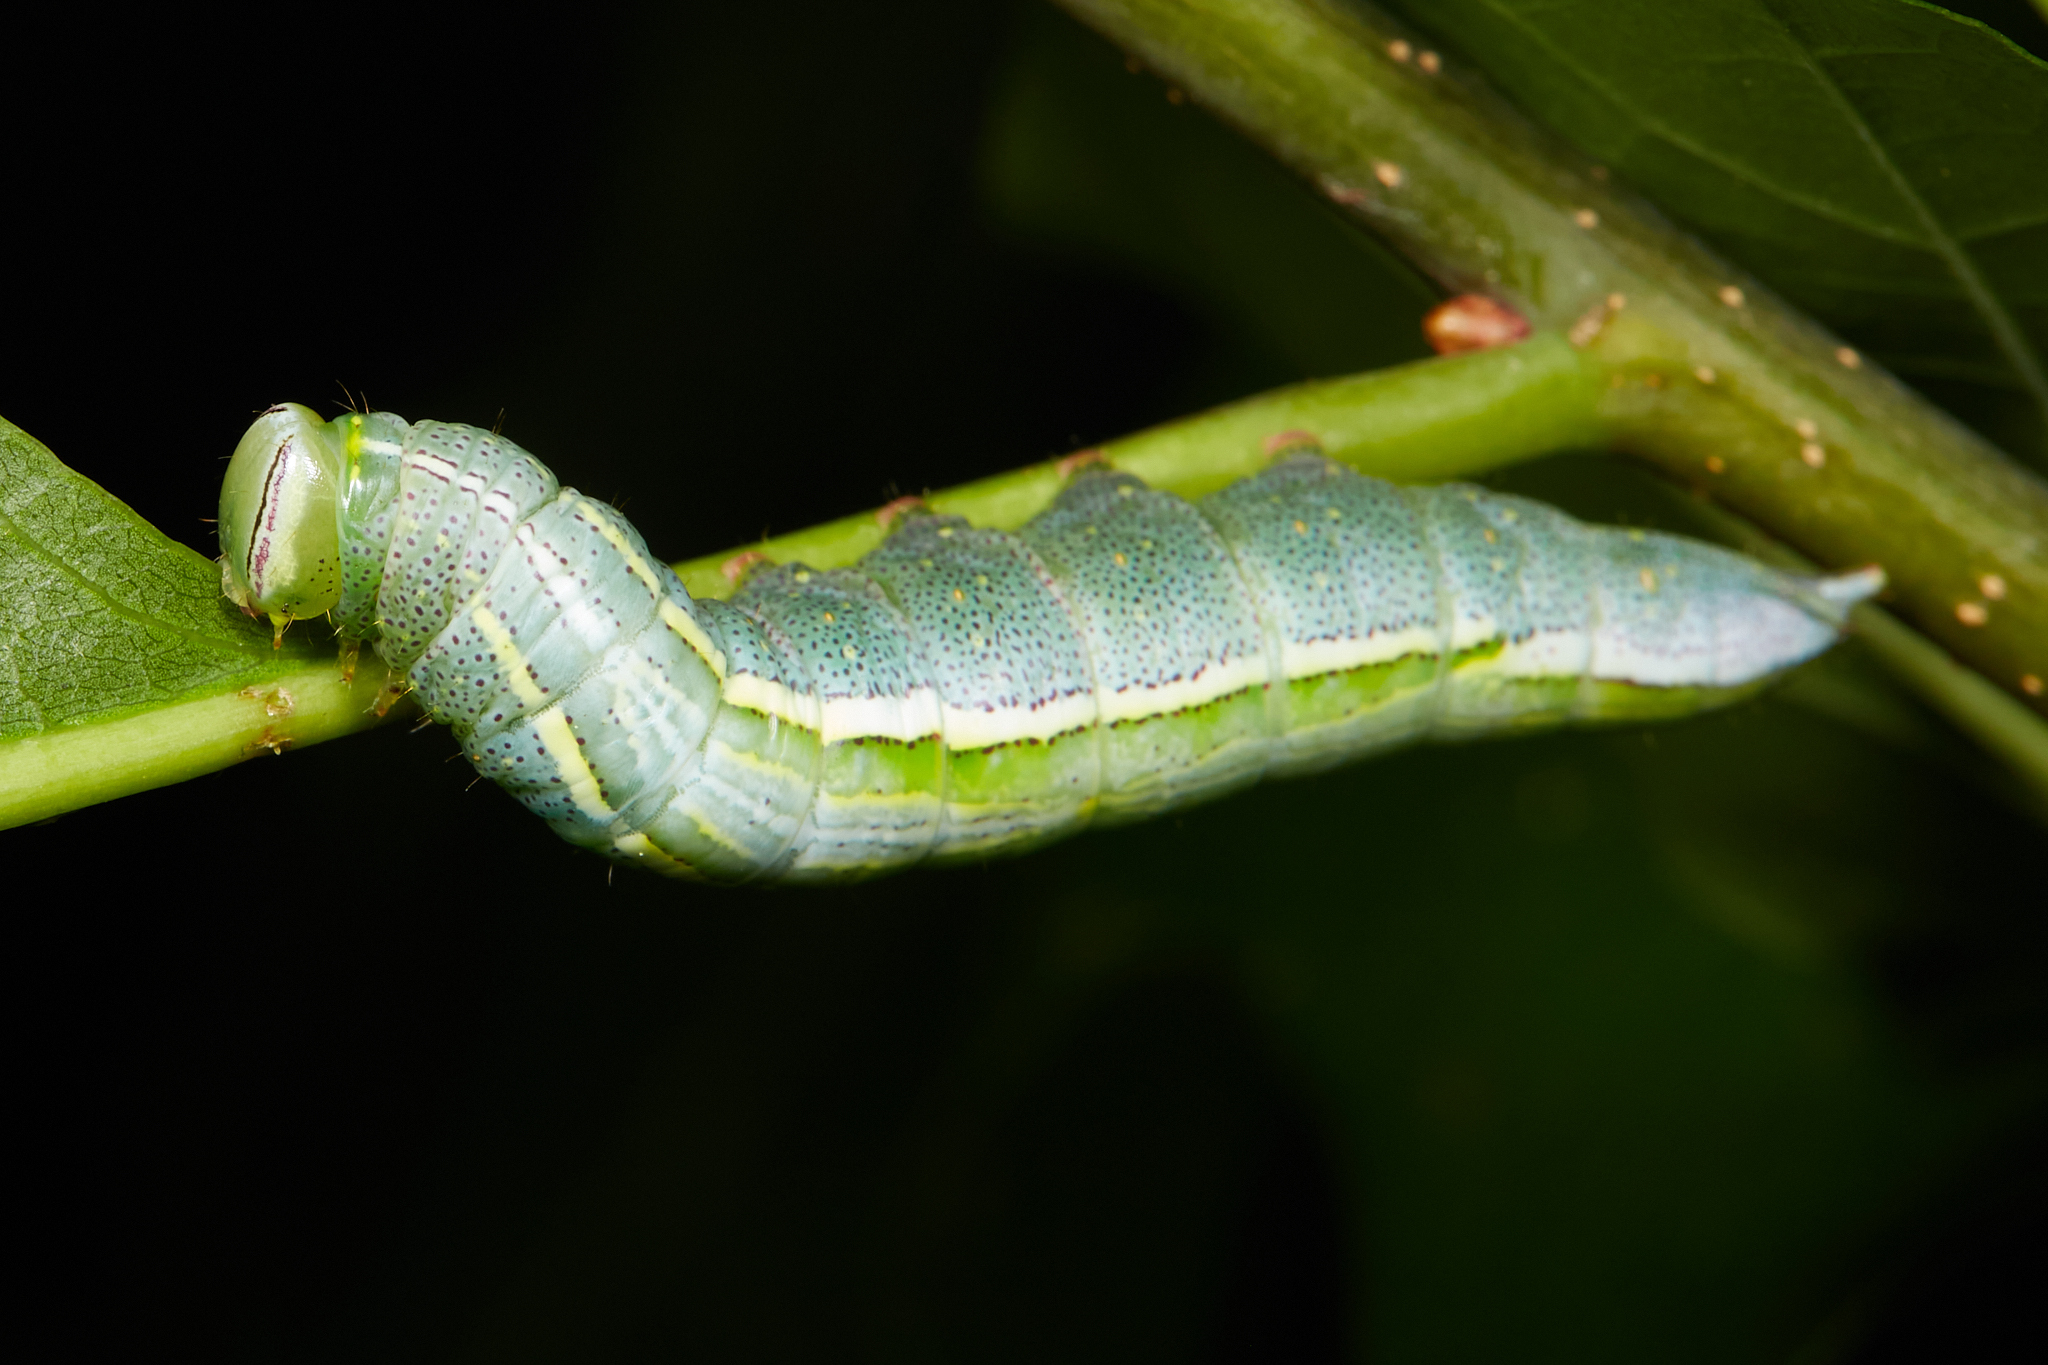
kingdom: Animalia
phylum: Arthropoda
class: Insecta
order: Lepidoptera
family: Notodontidae
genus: Disphragis
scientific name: Disphragis Cecrita guttivitta
